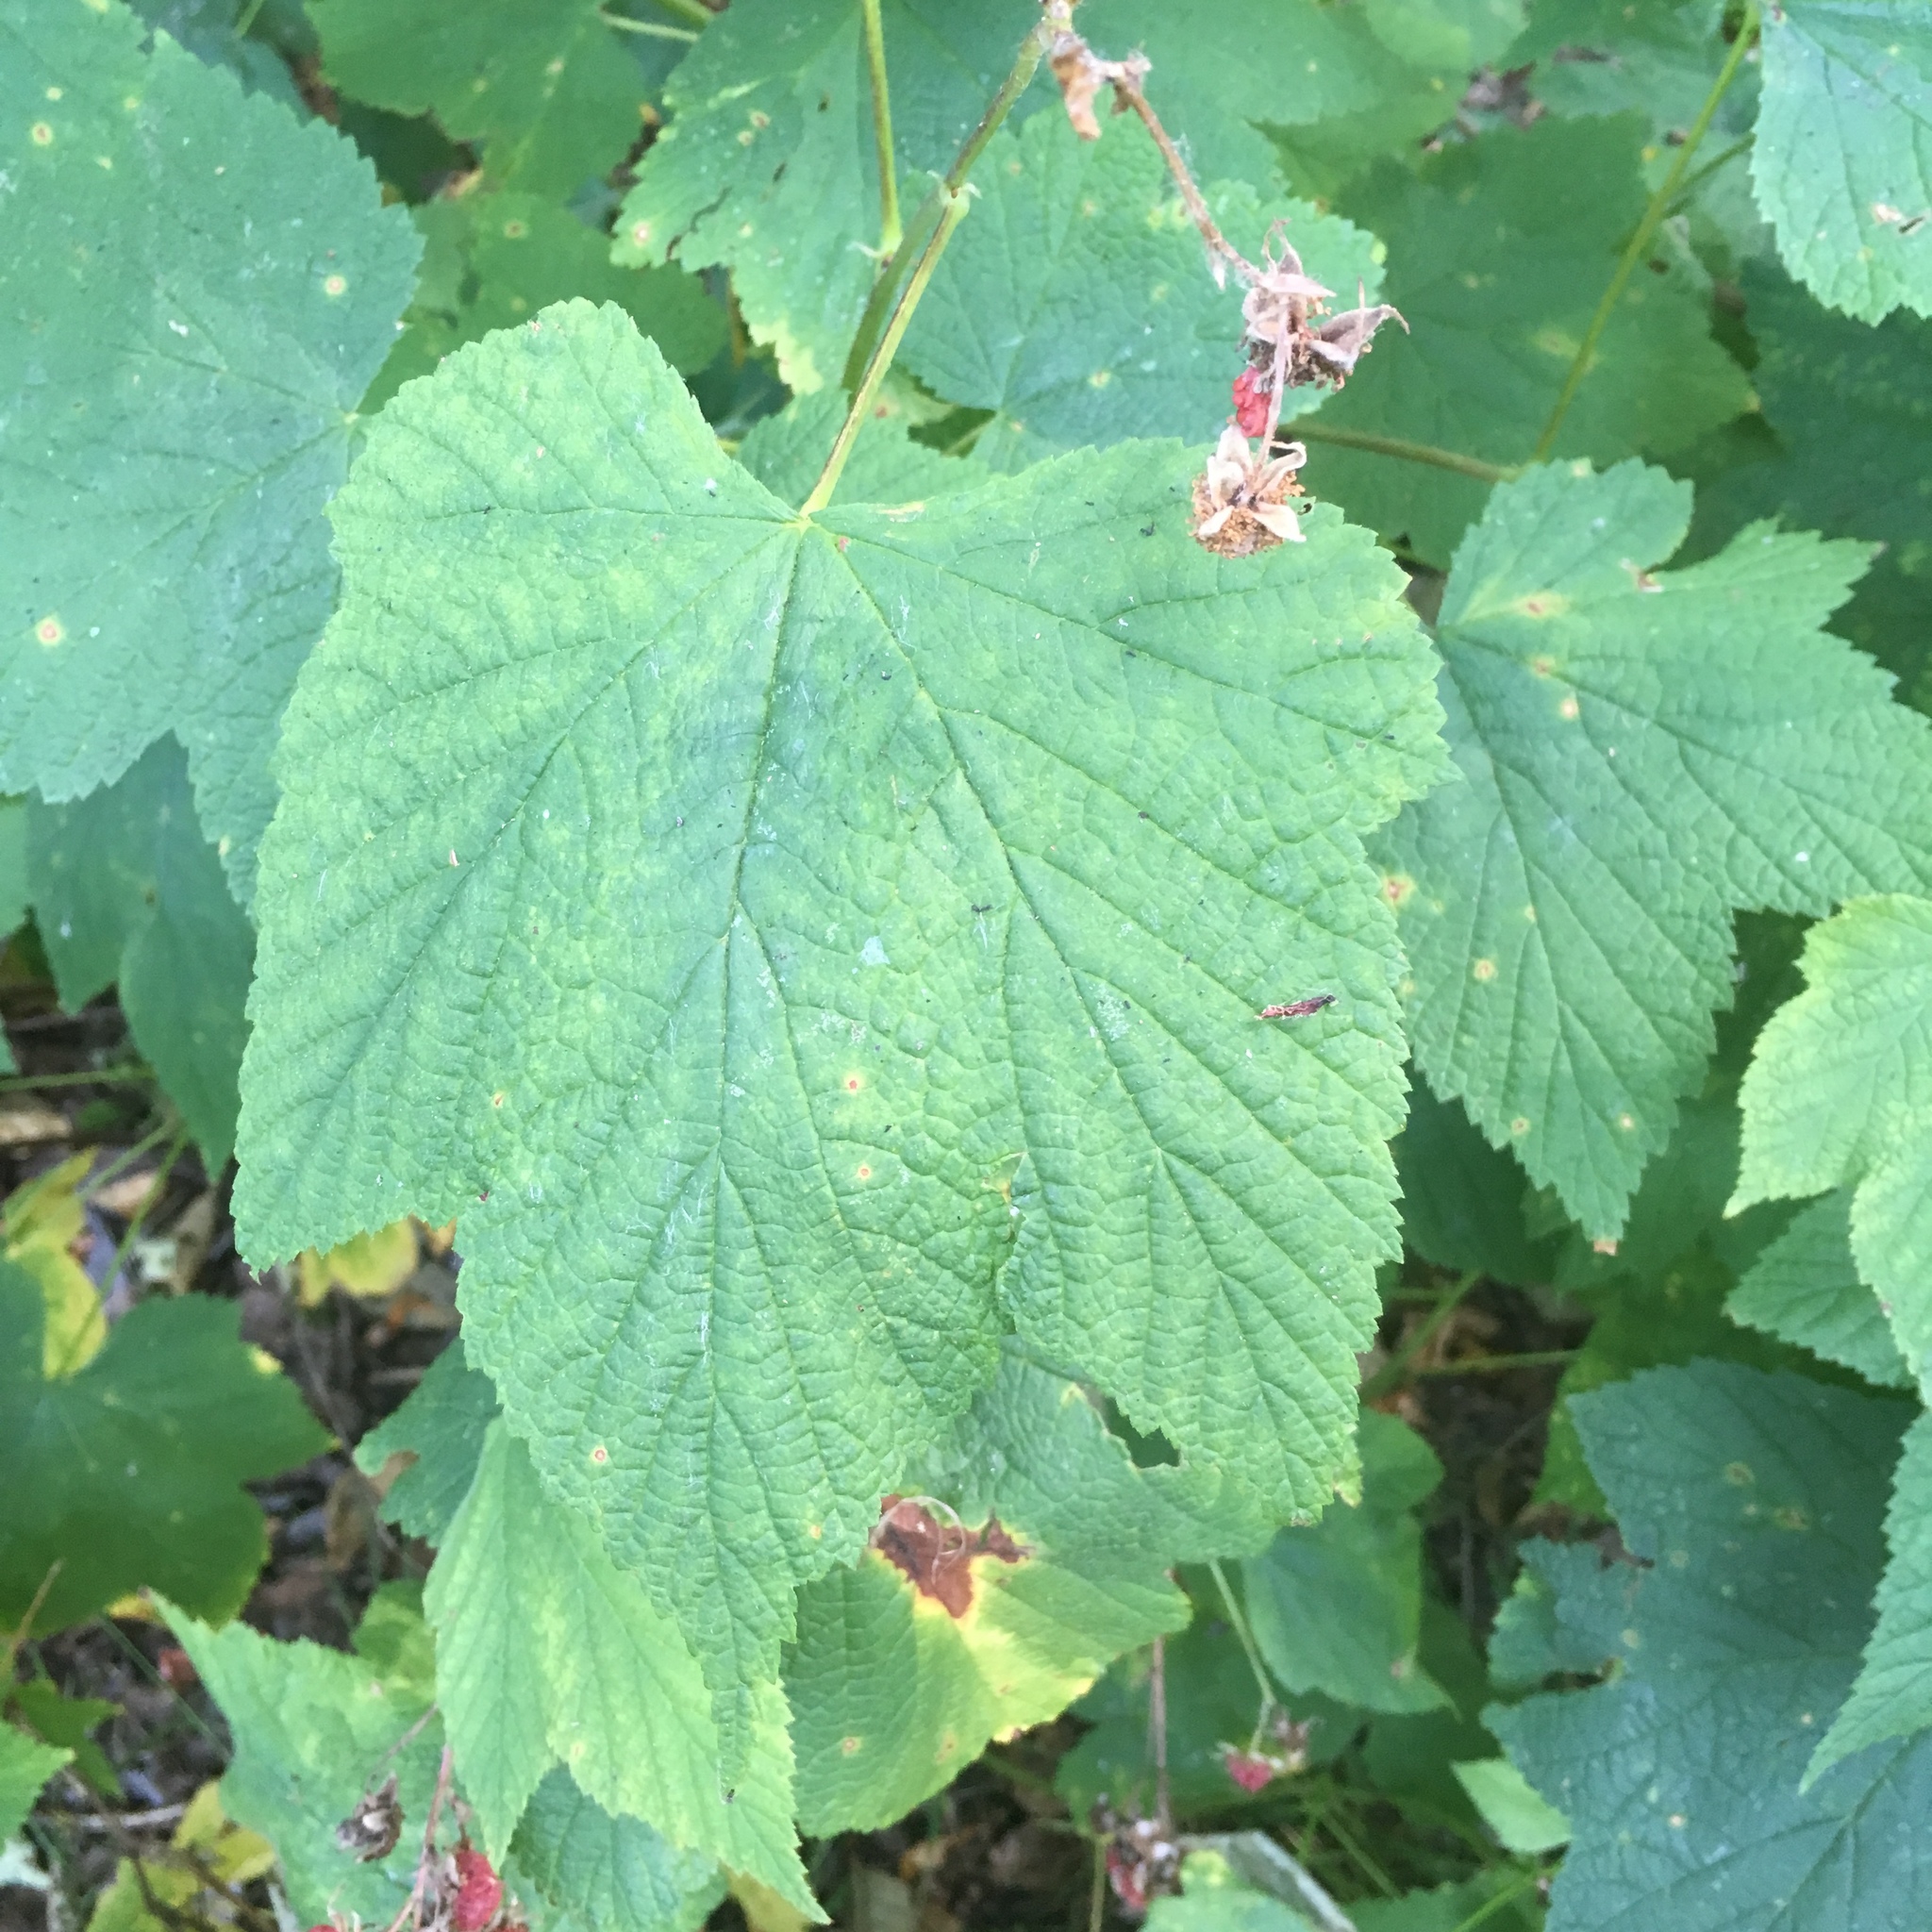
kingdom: Plantae
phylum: Tracheophyta
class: Magnoliopsida
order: Rosales
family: Rosaceae
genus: Rubus
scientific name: Rubus parviflorus
